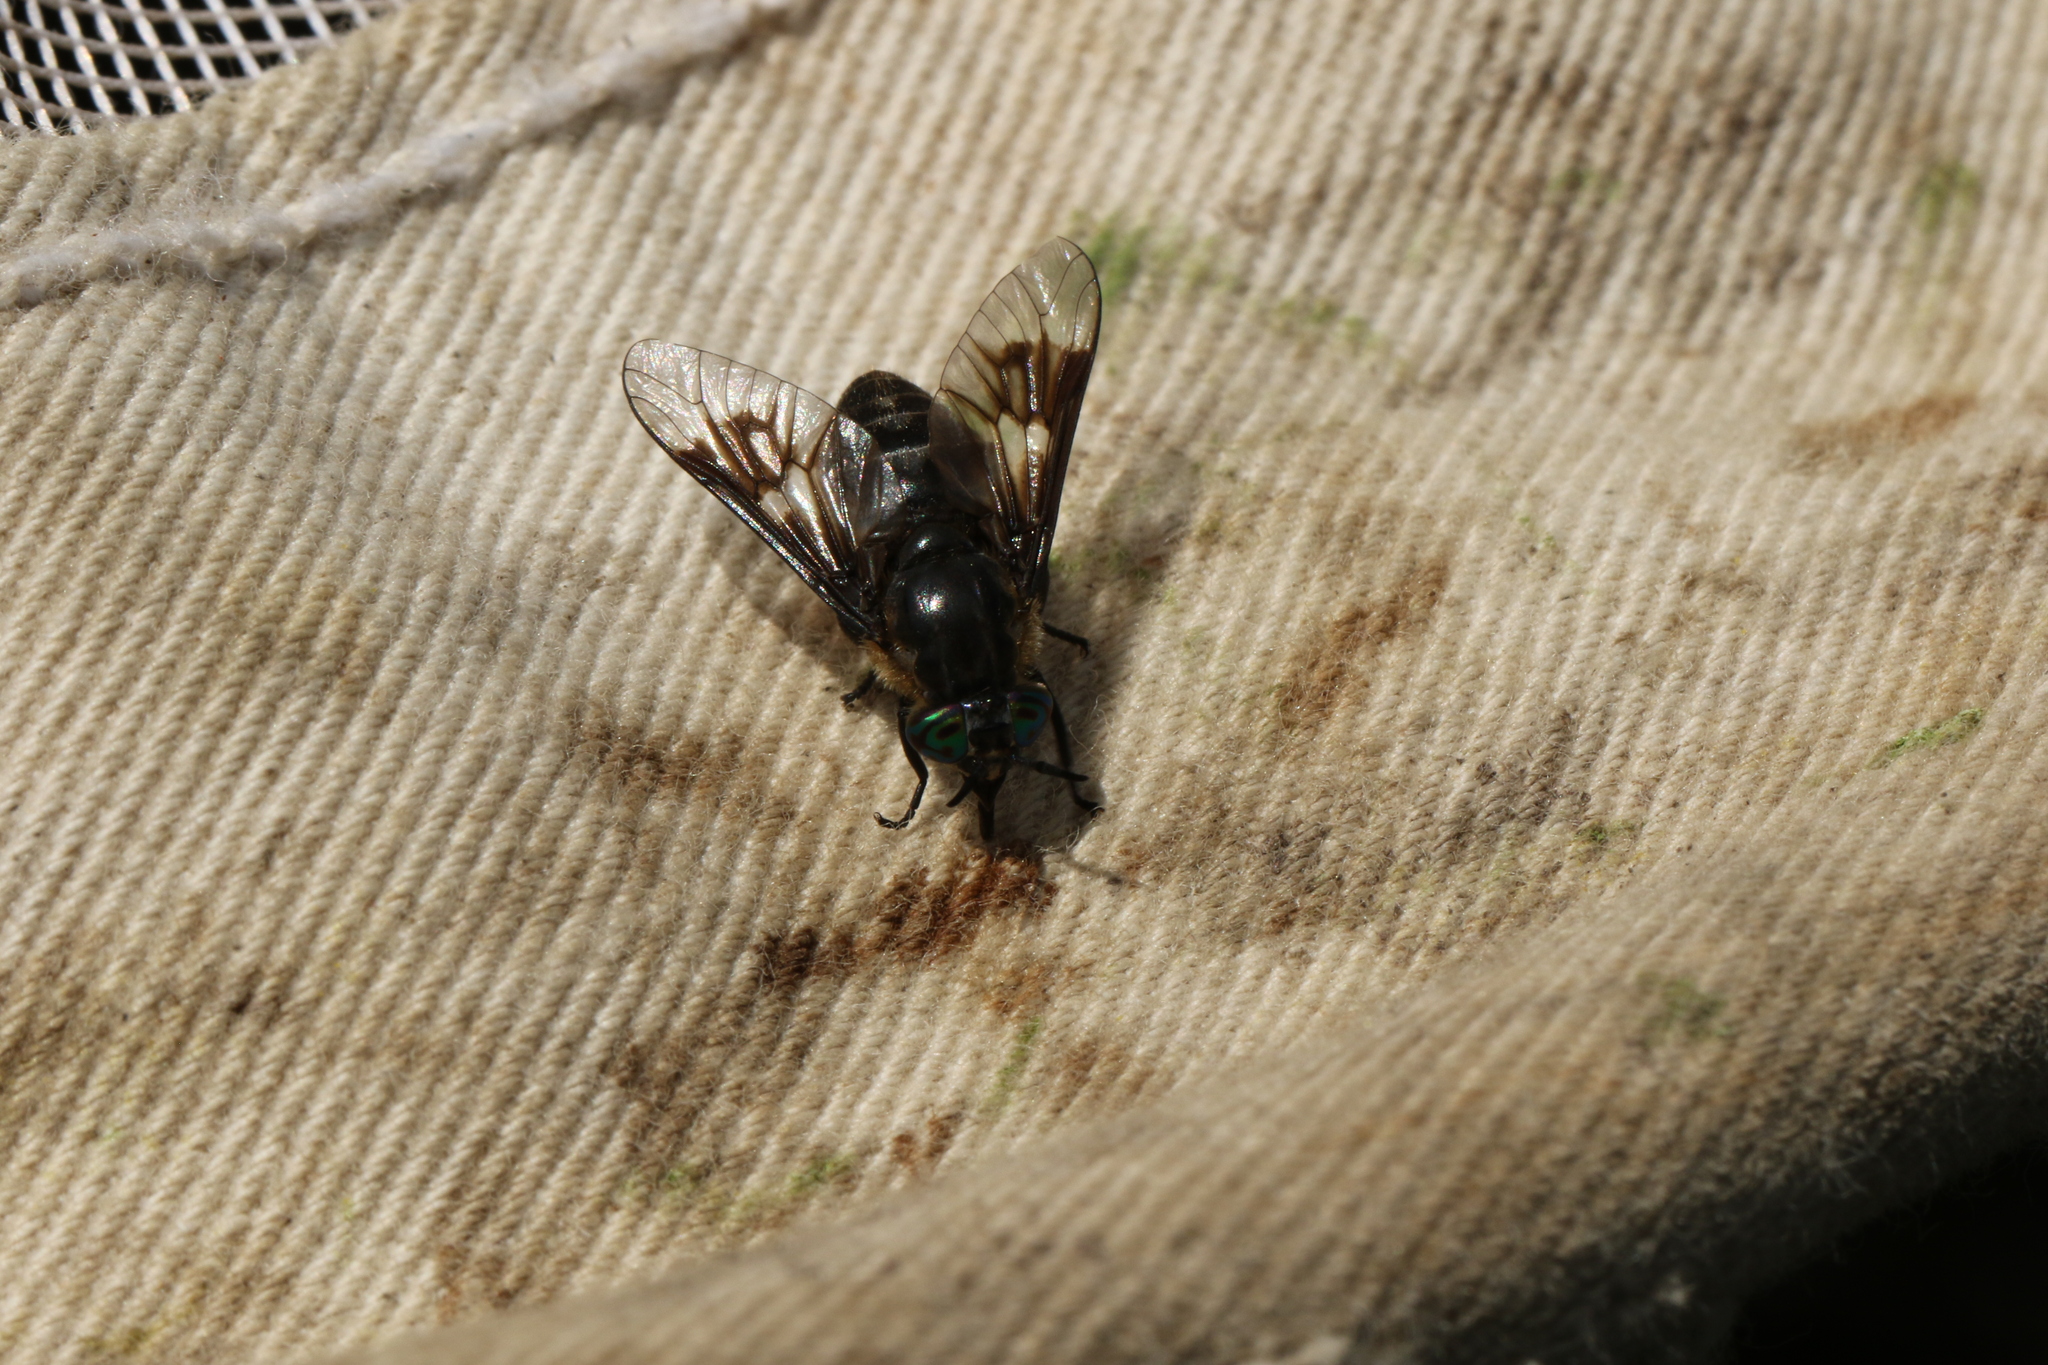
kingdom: Animalia
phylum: Arthropoda
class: Insecta
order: Diptera
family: Tabanidae
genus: Chrysops
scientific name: Chrysops mitis
